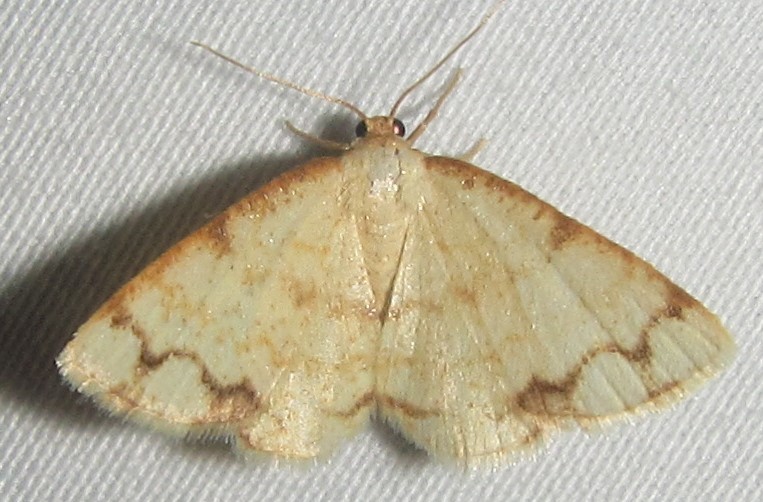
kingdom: Animalia
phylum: Arthropoda
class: Insecta
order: Lepidoptera
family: Geometridae
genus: Lomographa
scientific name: Lomographa indularia
